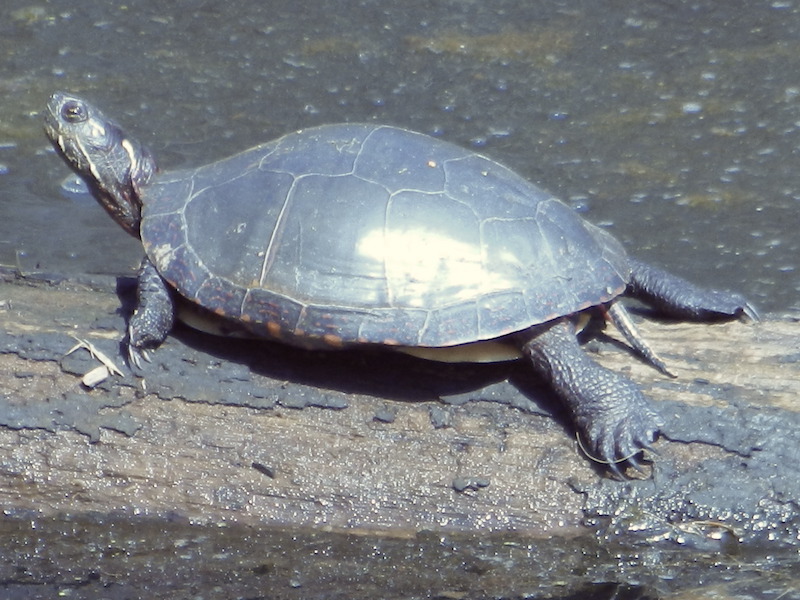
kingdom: Animalia
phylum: Chordata
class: Testudines
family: Emydidae
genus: Chrysemys
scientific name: Chrysemys picta
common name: Painted turtle
